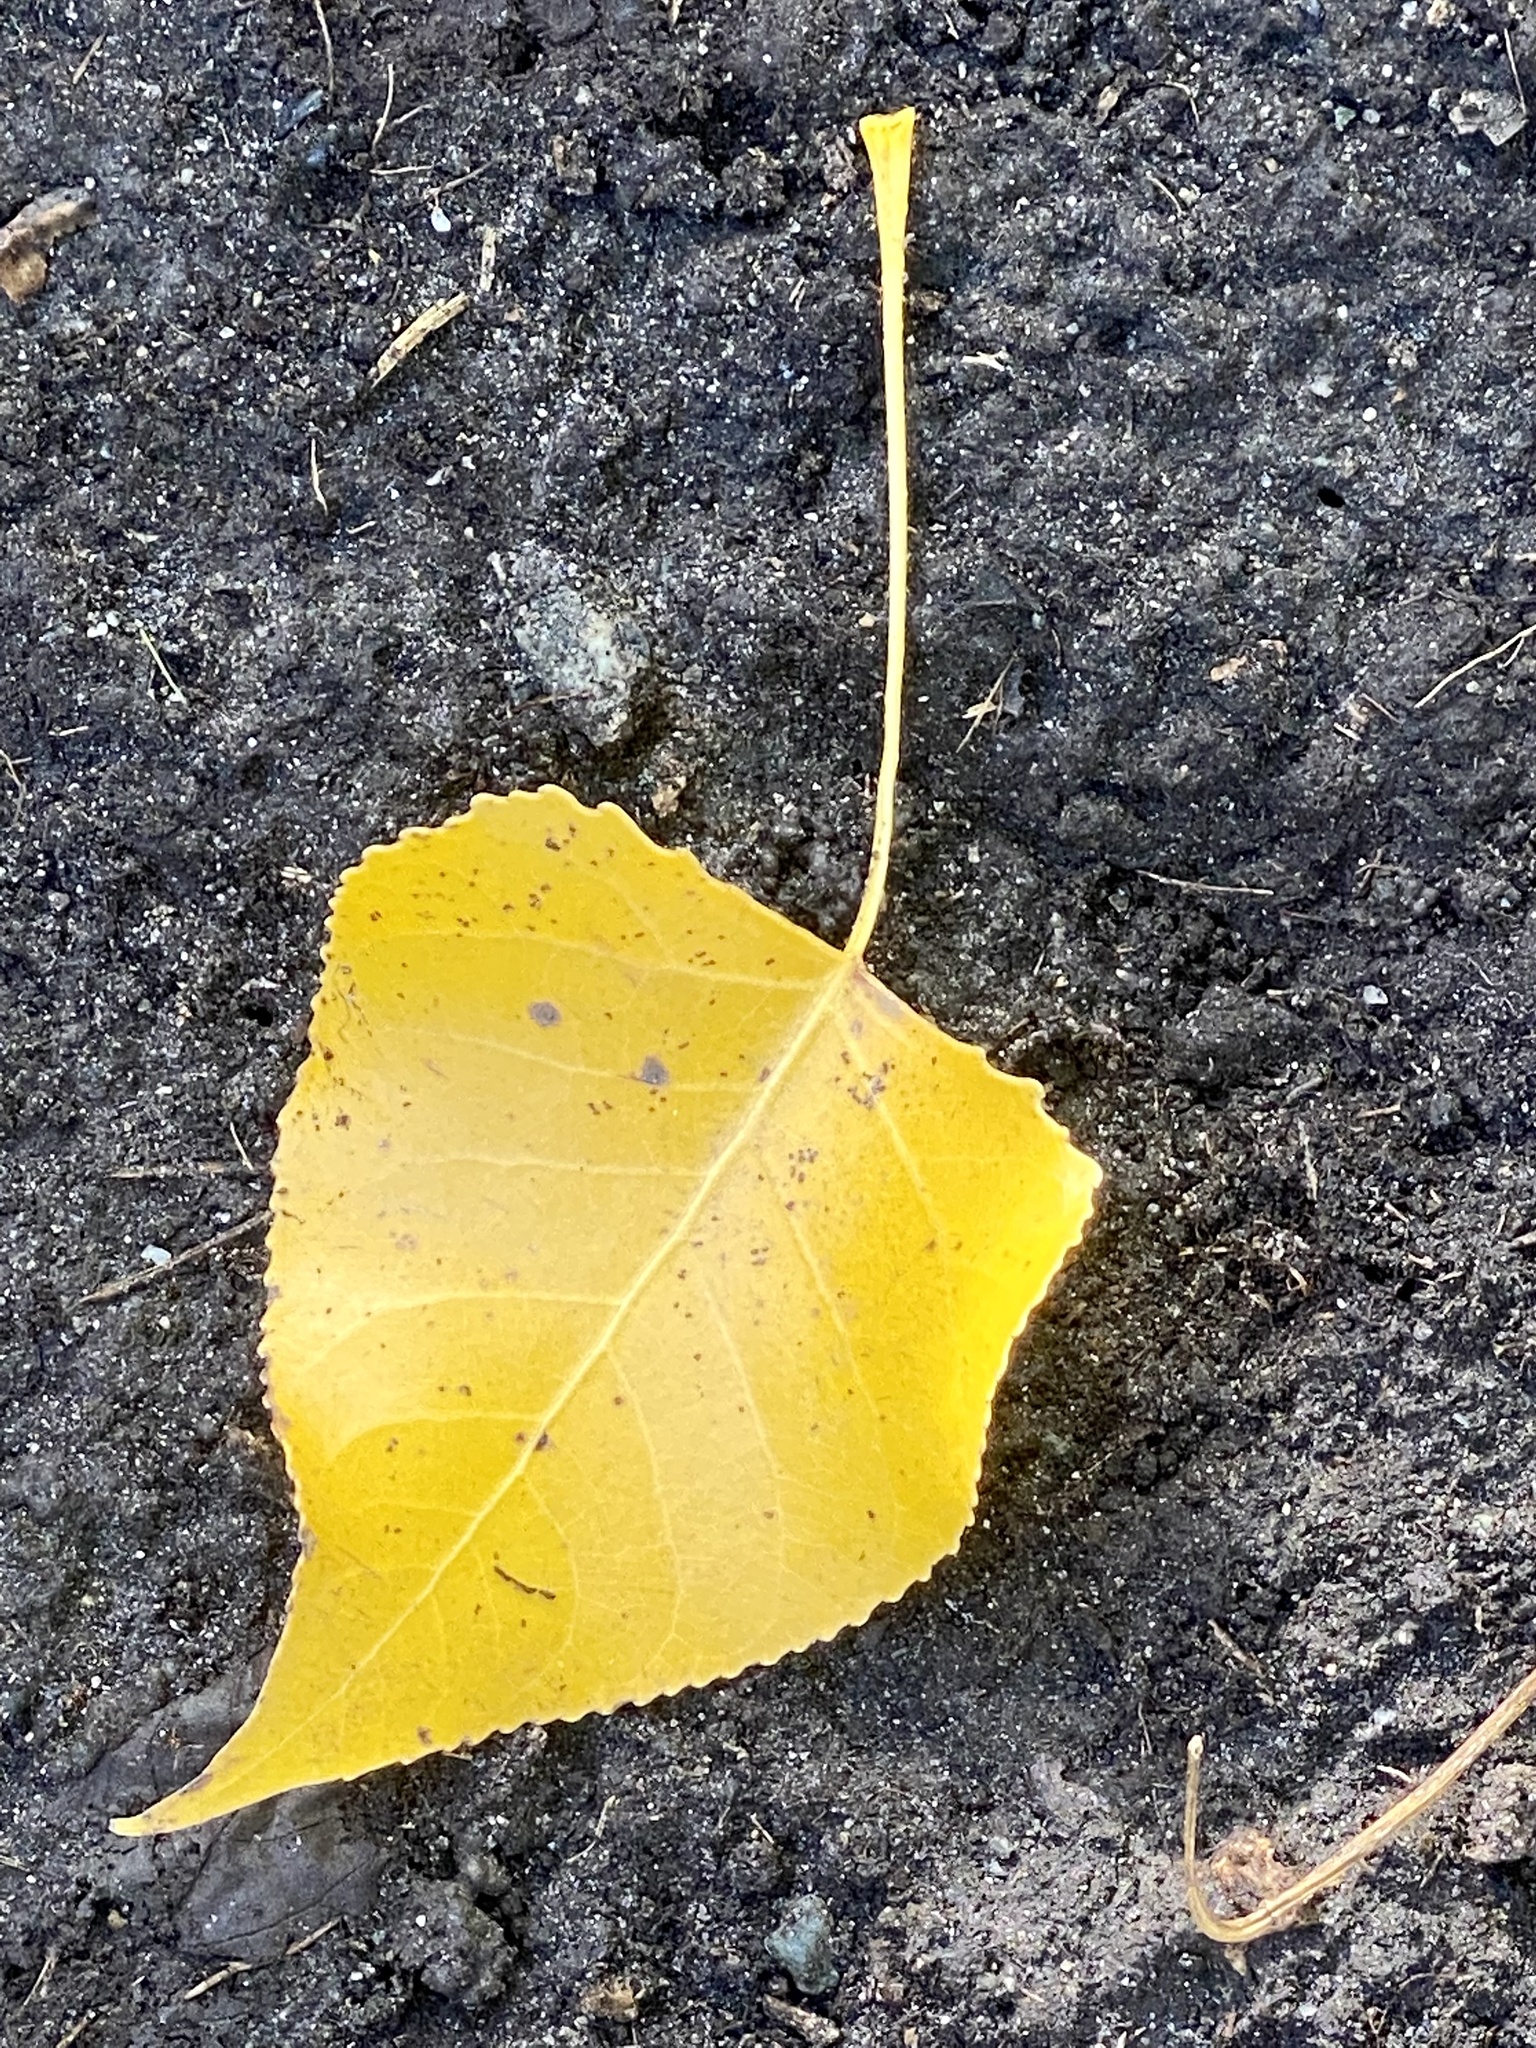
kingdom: Plantae
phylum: Tracheophyta
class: Magnoliopsida
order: Malpighiales
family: Salicaceae
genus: Populus
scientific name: Populus deltoides
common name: Eastern cottonwood
